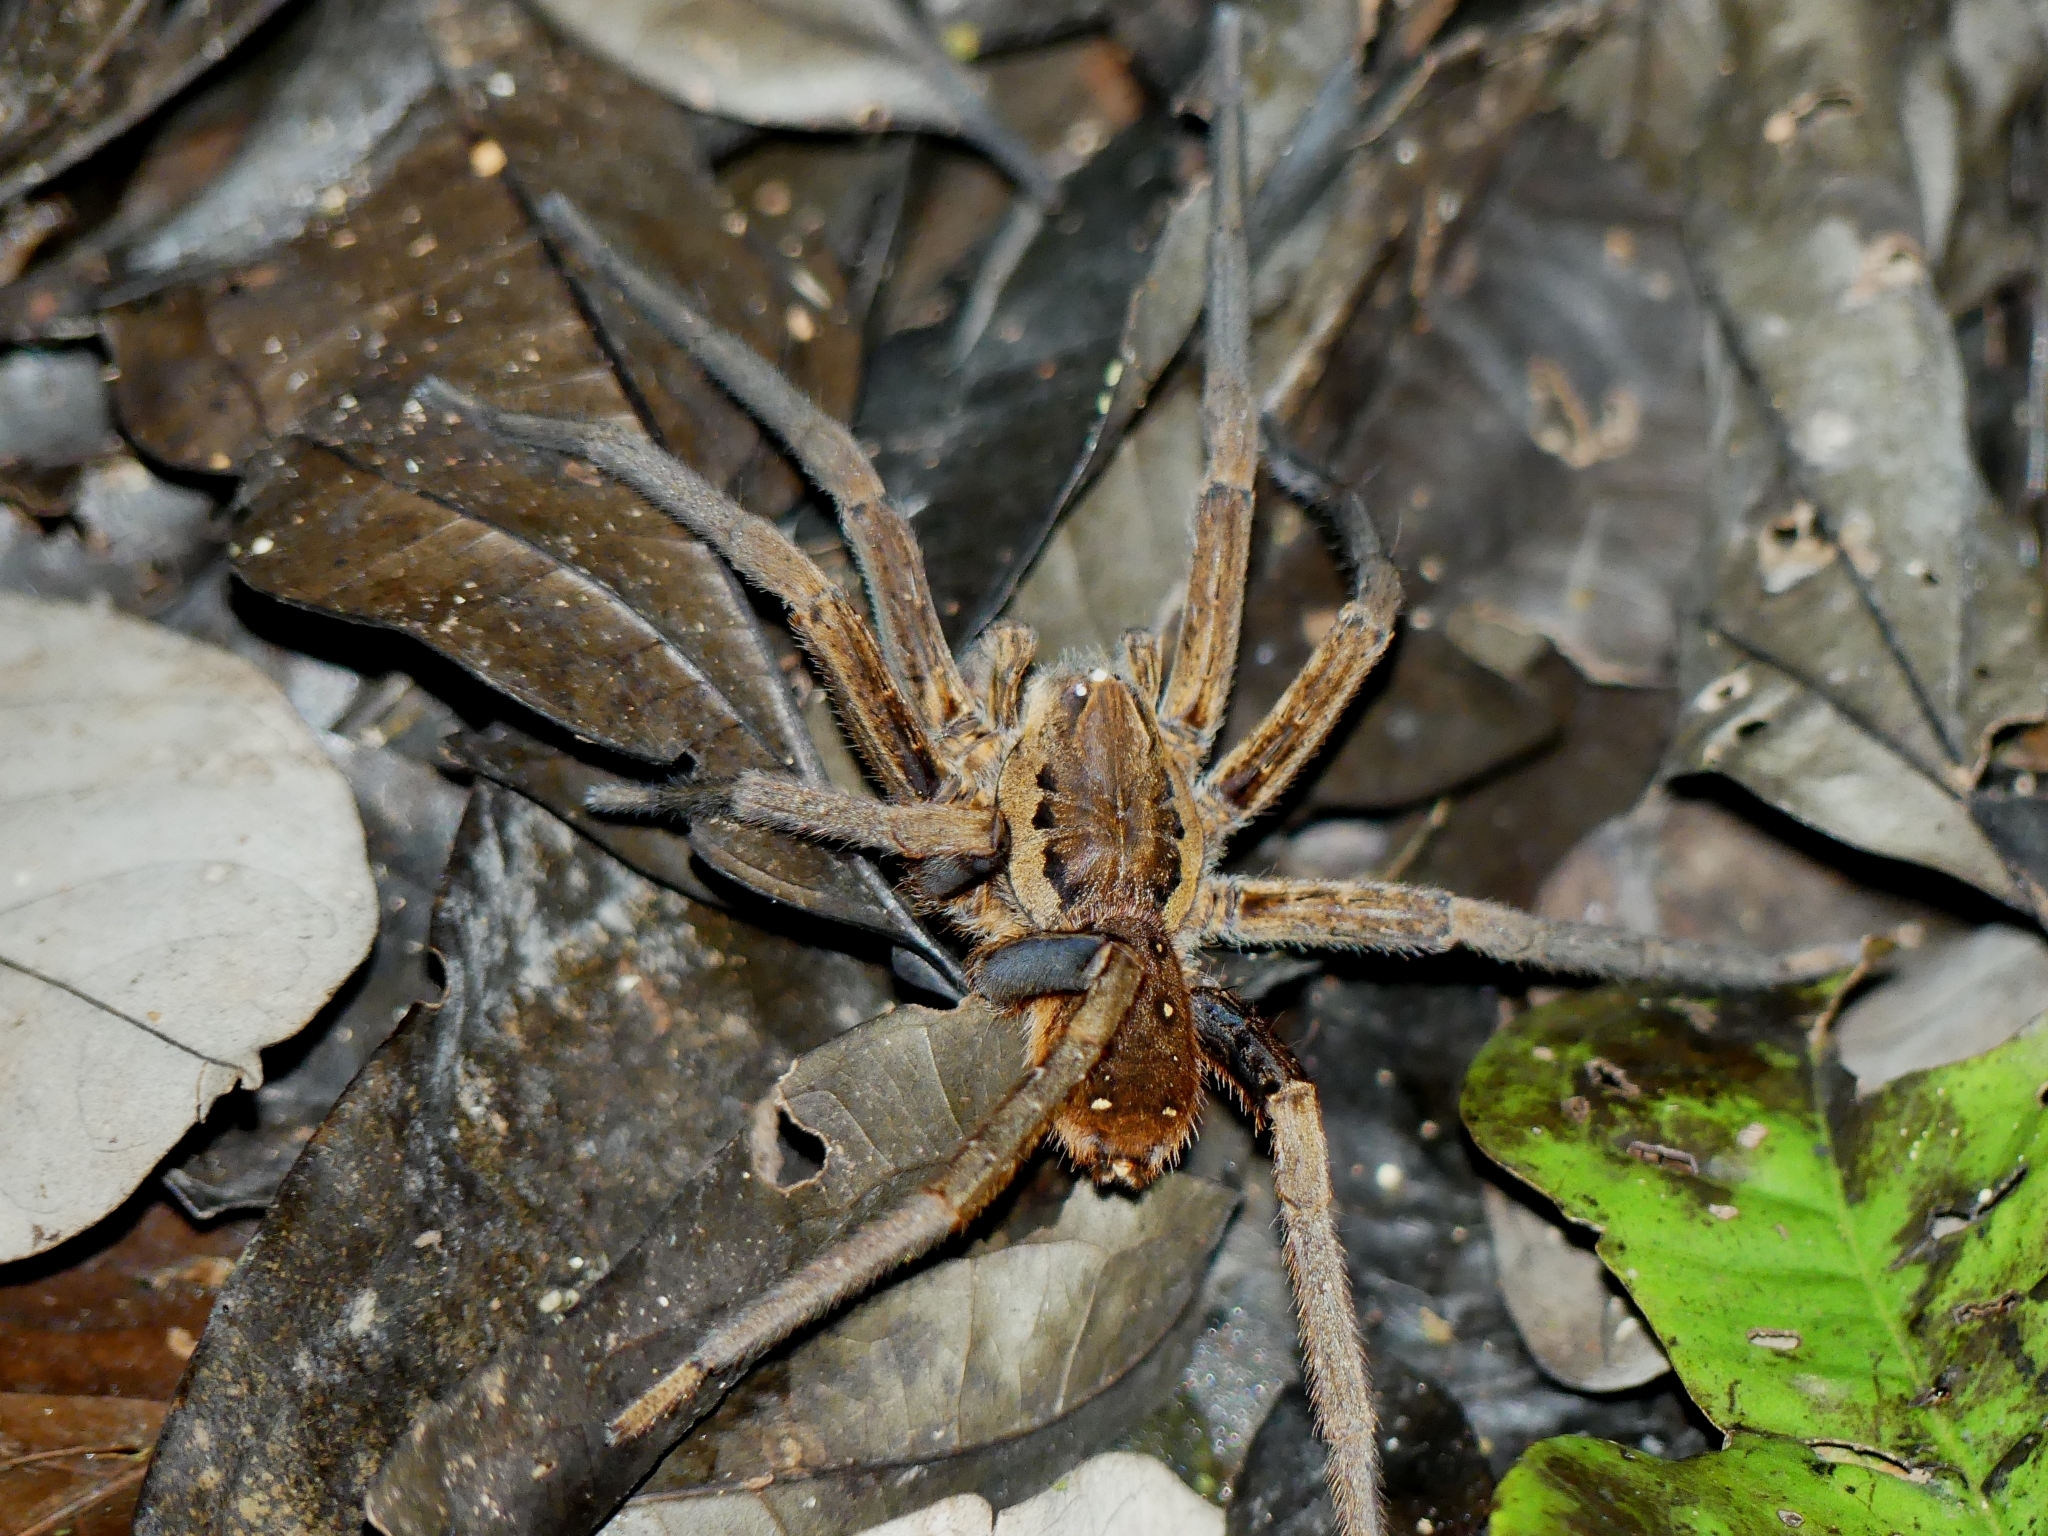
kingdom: Animalia
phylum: Arthropoda
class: Arachnida
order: Araneae
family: Ctenidae
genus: Ancylometes
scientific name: Ancylometes
